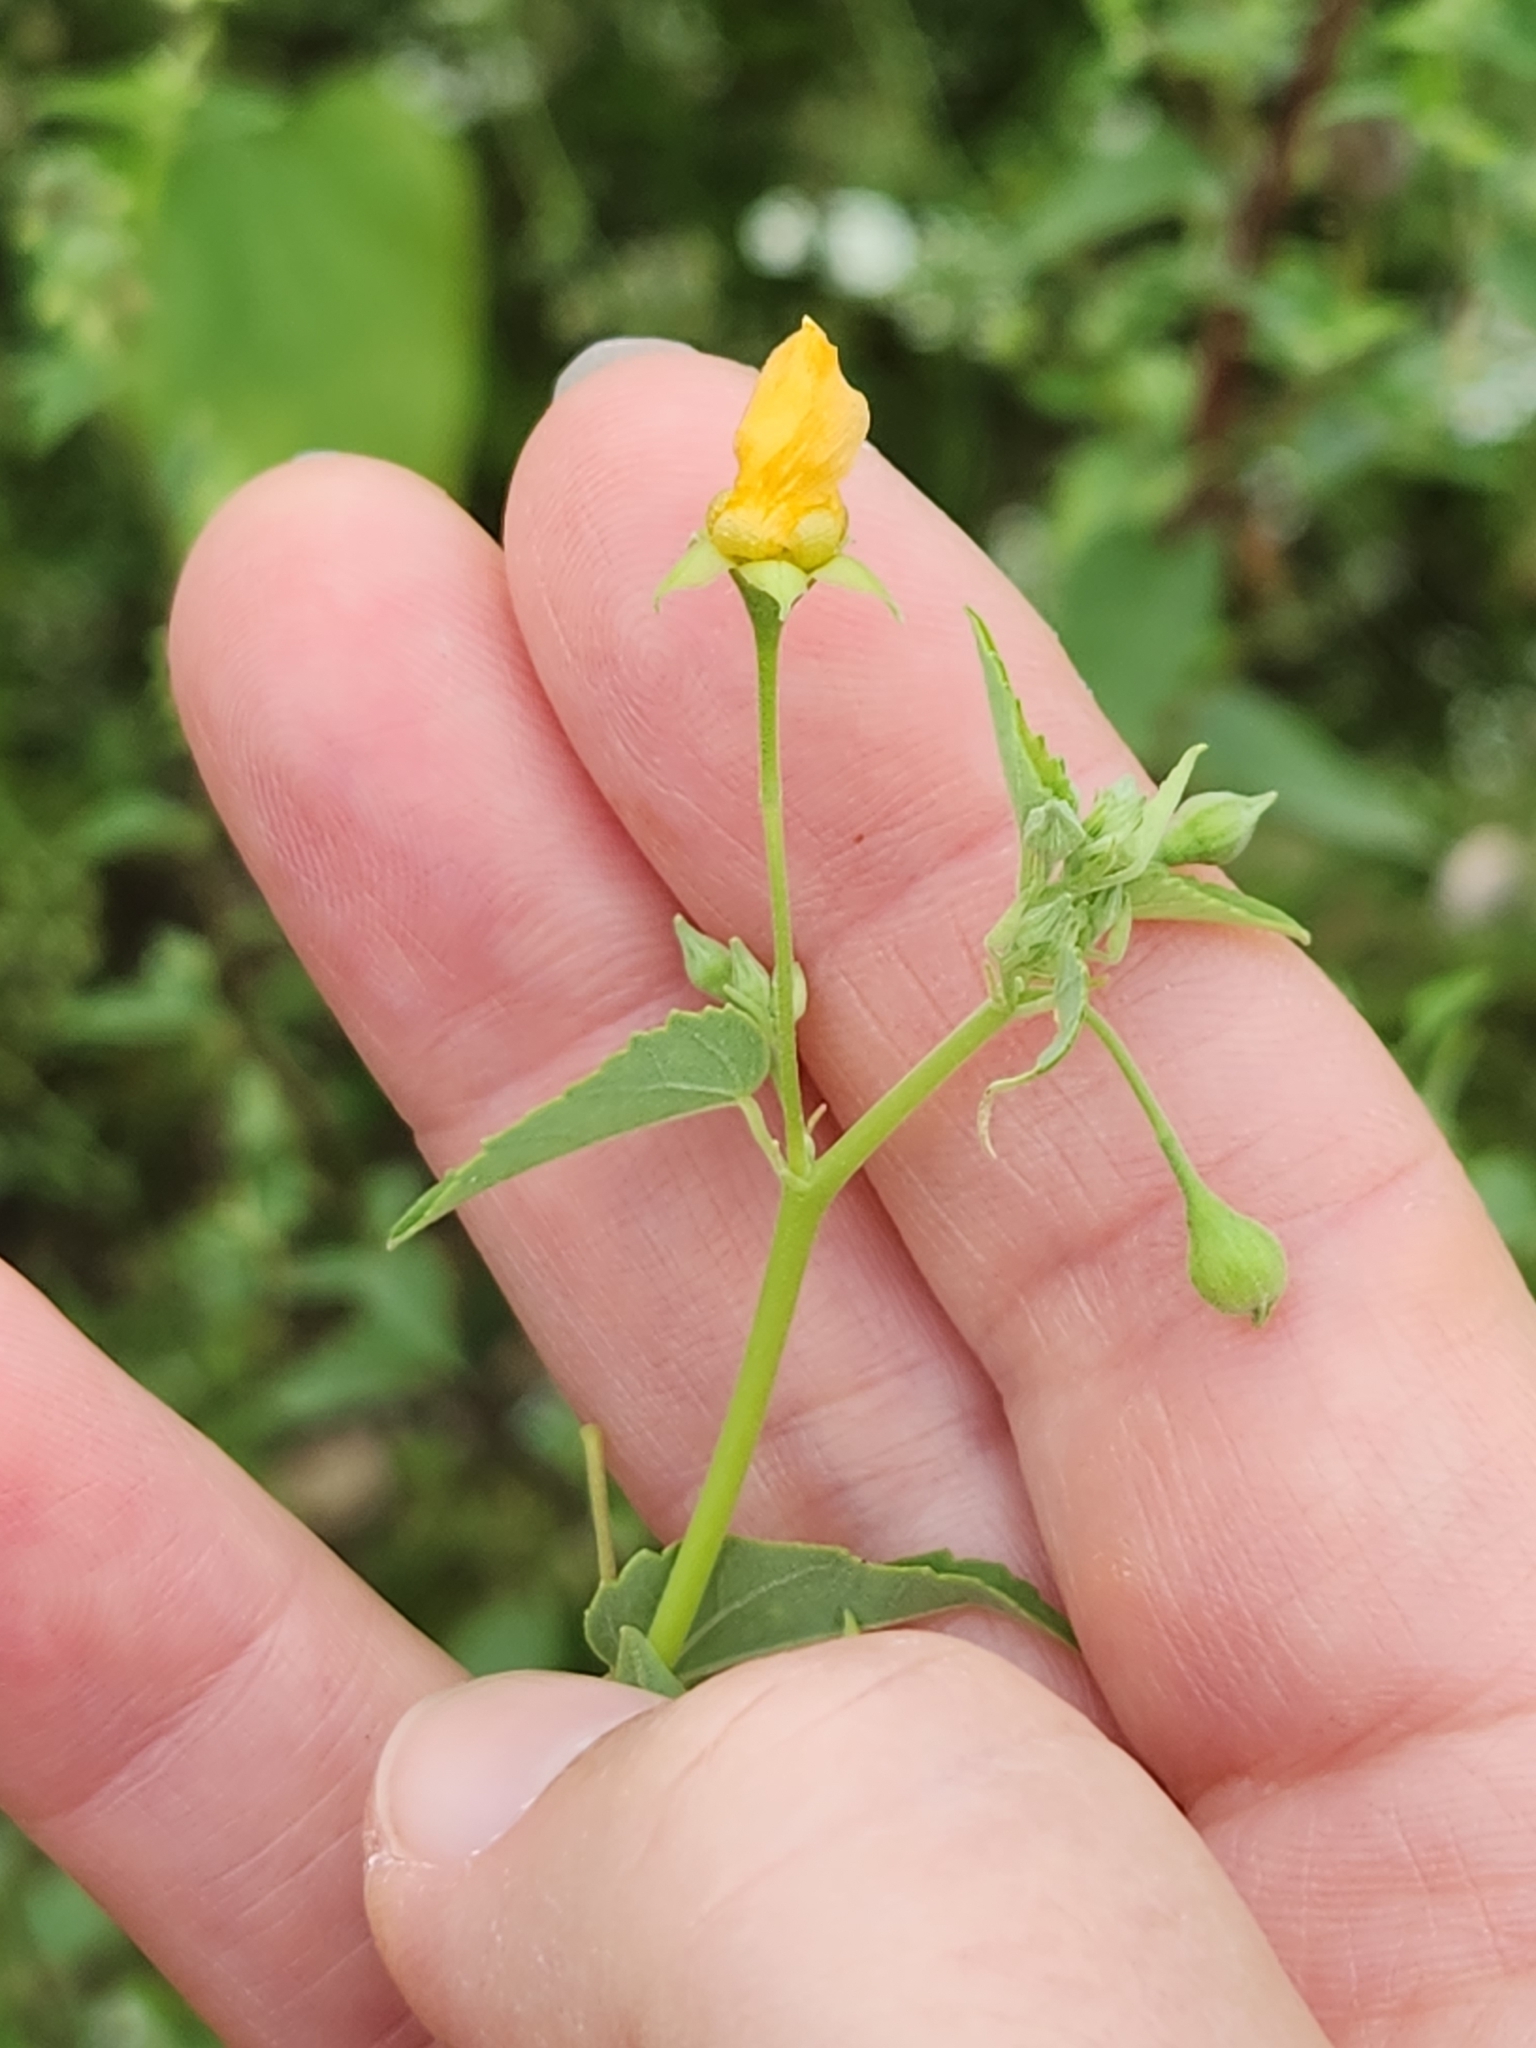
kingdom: Plantae
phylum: Tracheophyta
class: Magnoliopsida
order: Malvales
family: Malvaceae
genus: Abutilon
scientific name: Abutilon fruticosum
